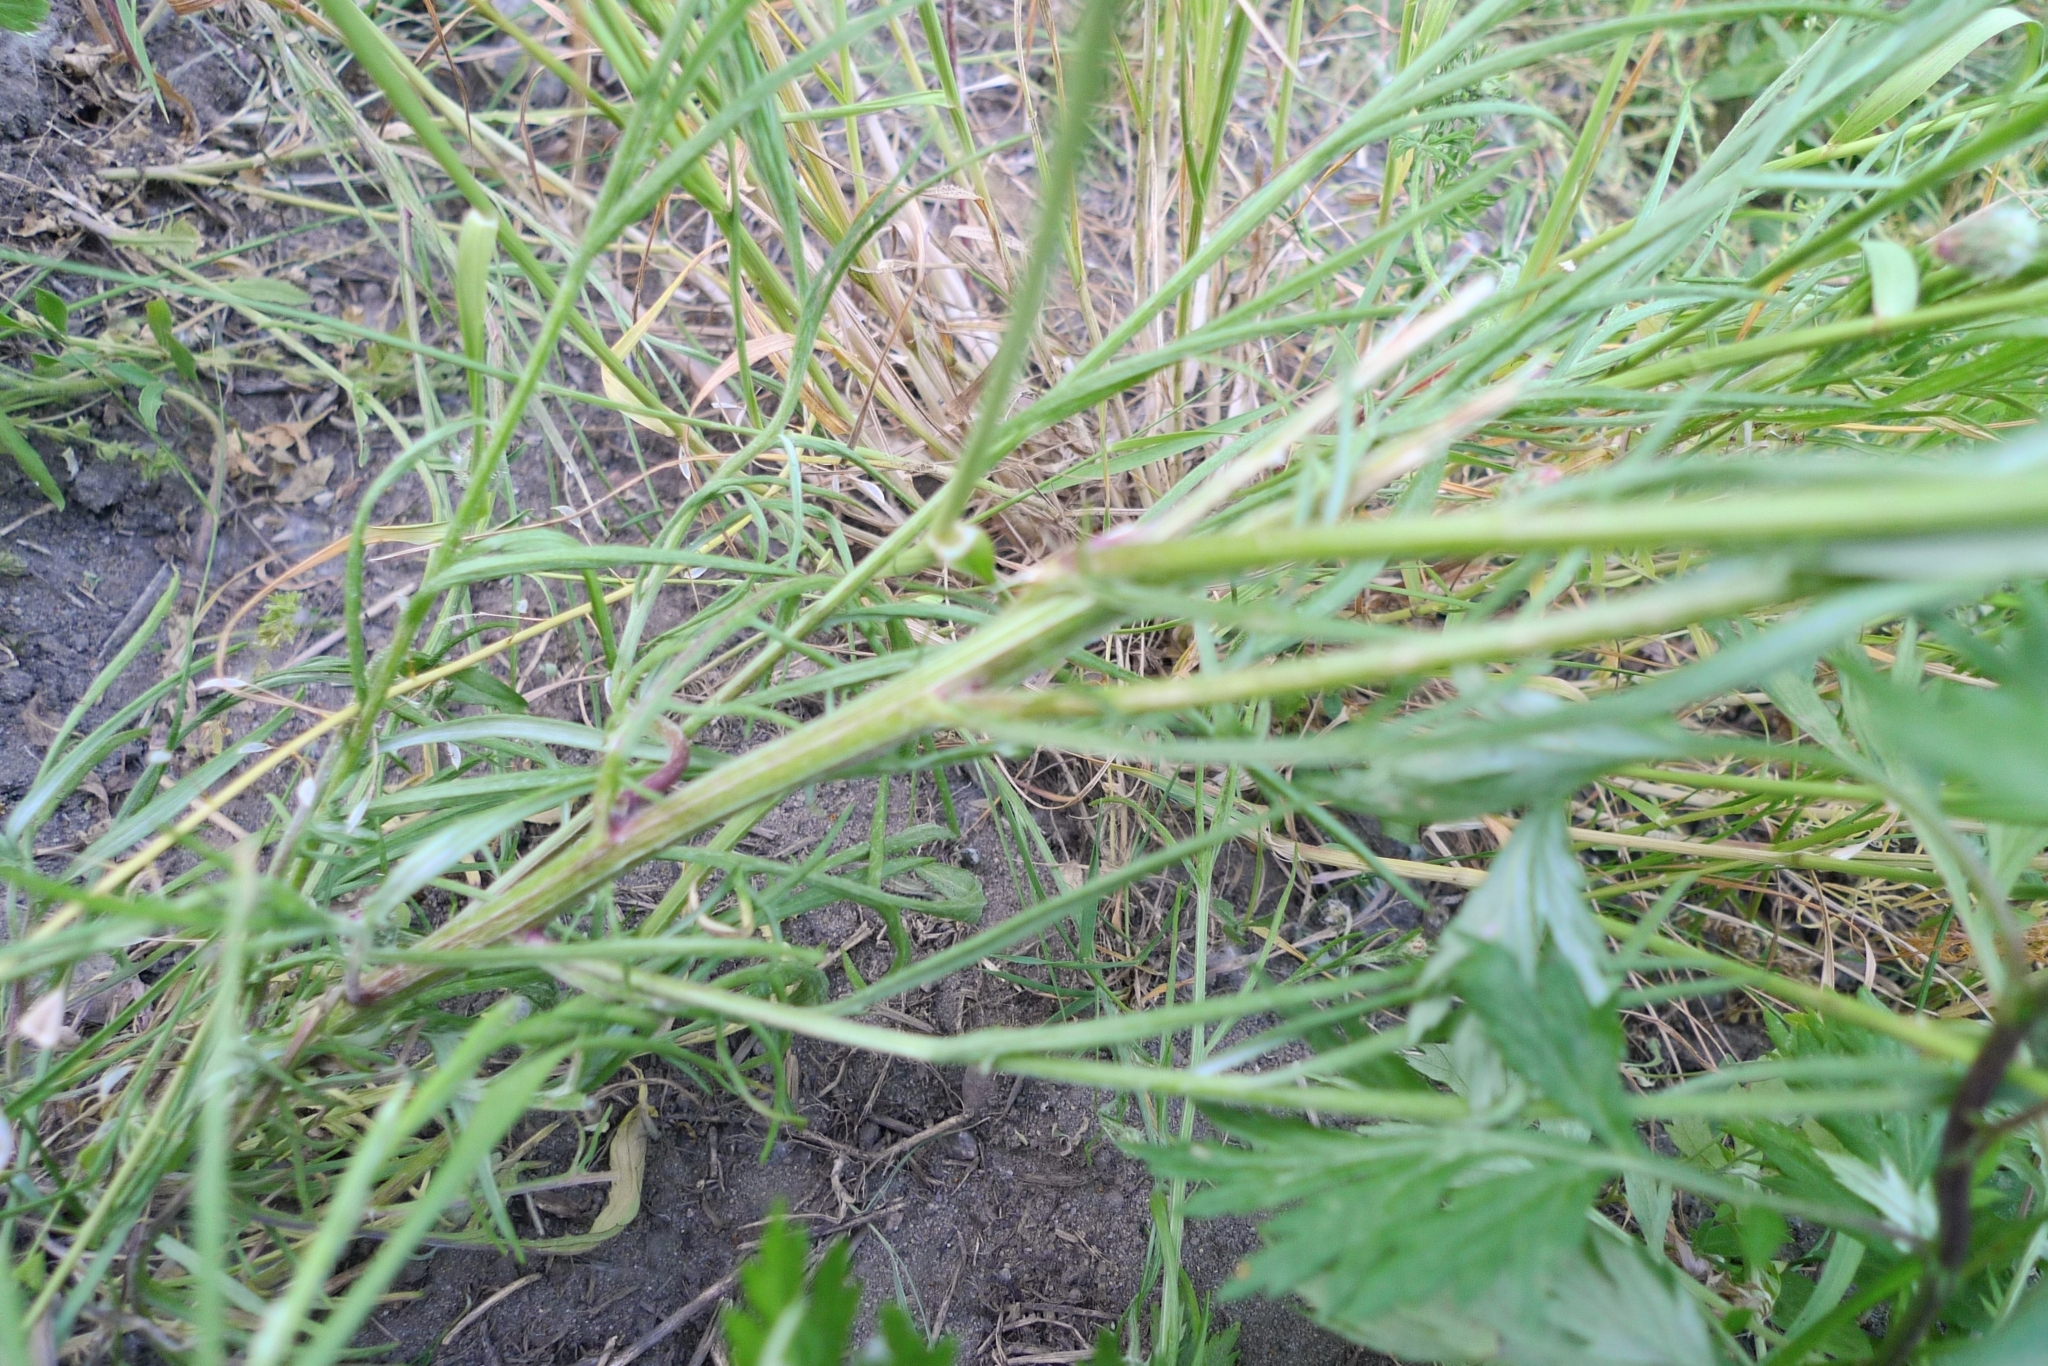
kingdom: Plantae
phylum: Tracheophyta
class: Magnoliopsida
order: Asterales
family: Asteraceae
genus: Centaurea
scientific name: Centaurea cyanus
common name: Cornflower
